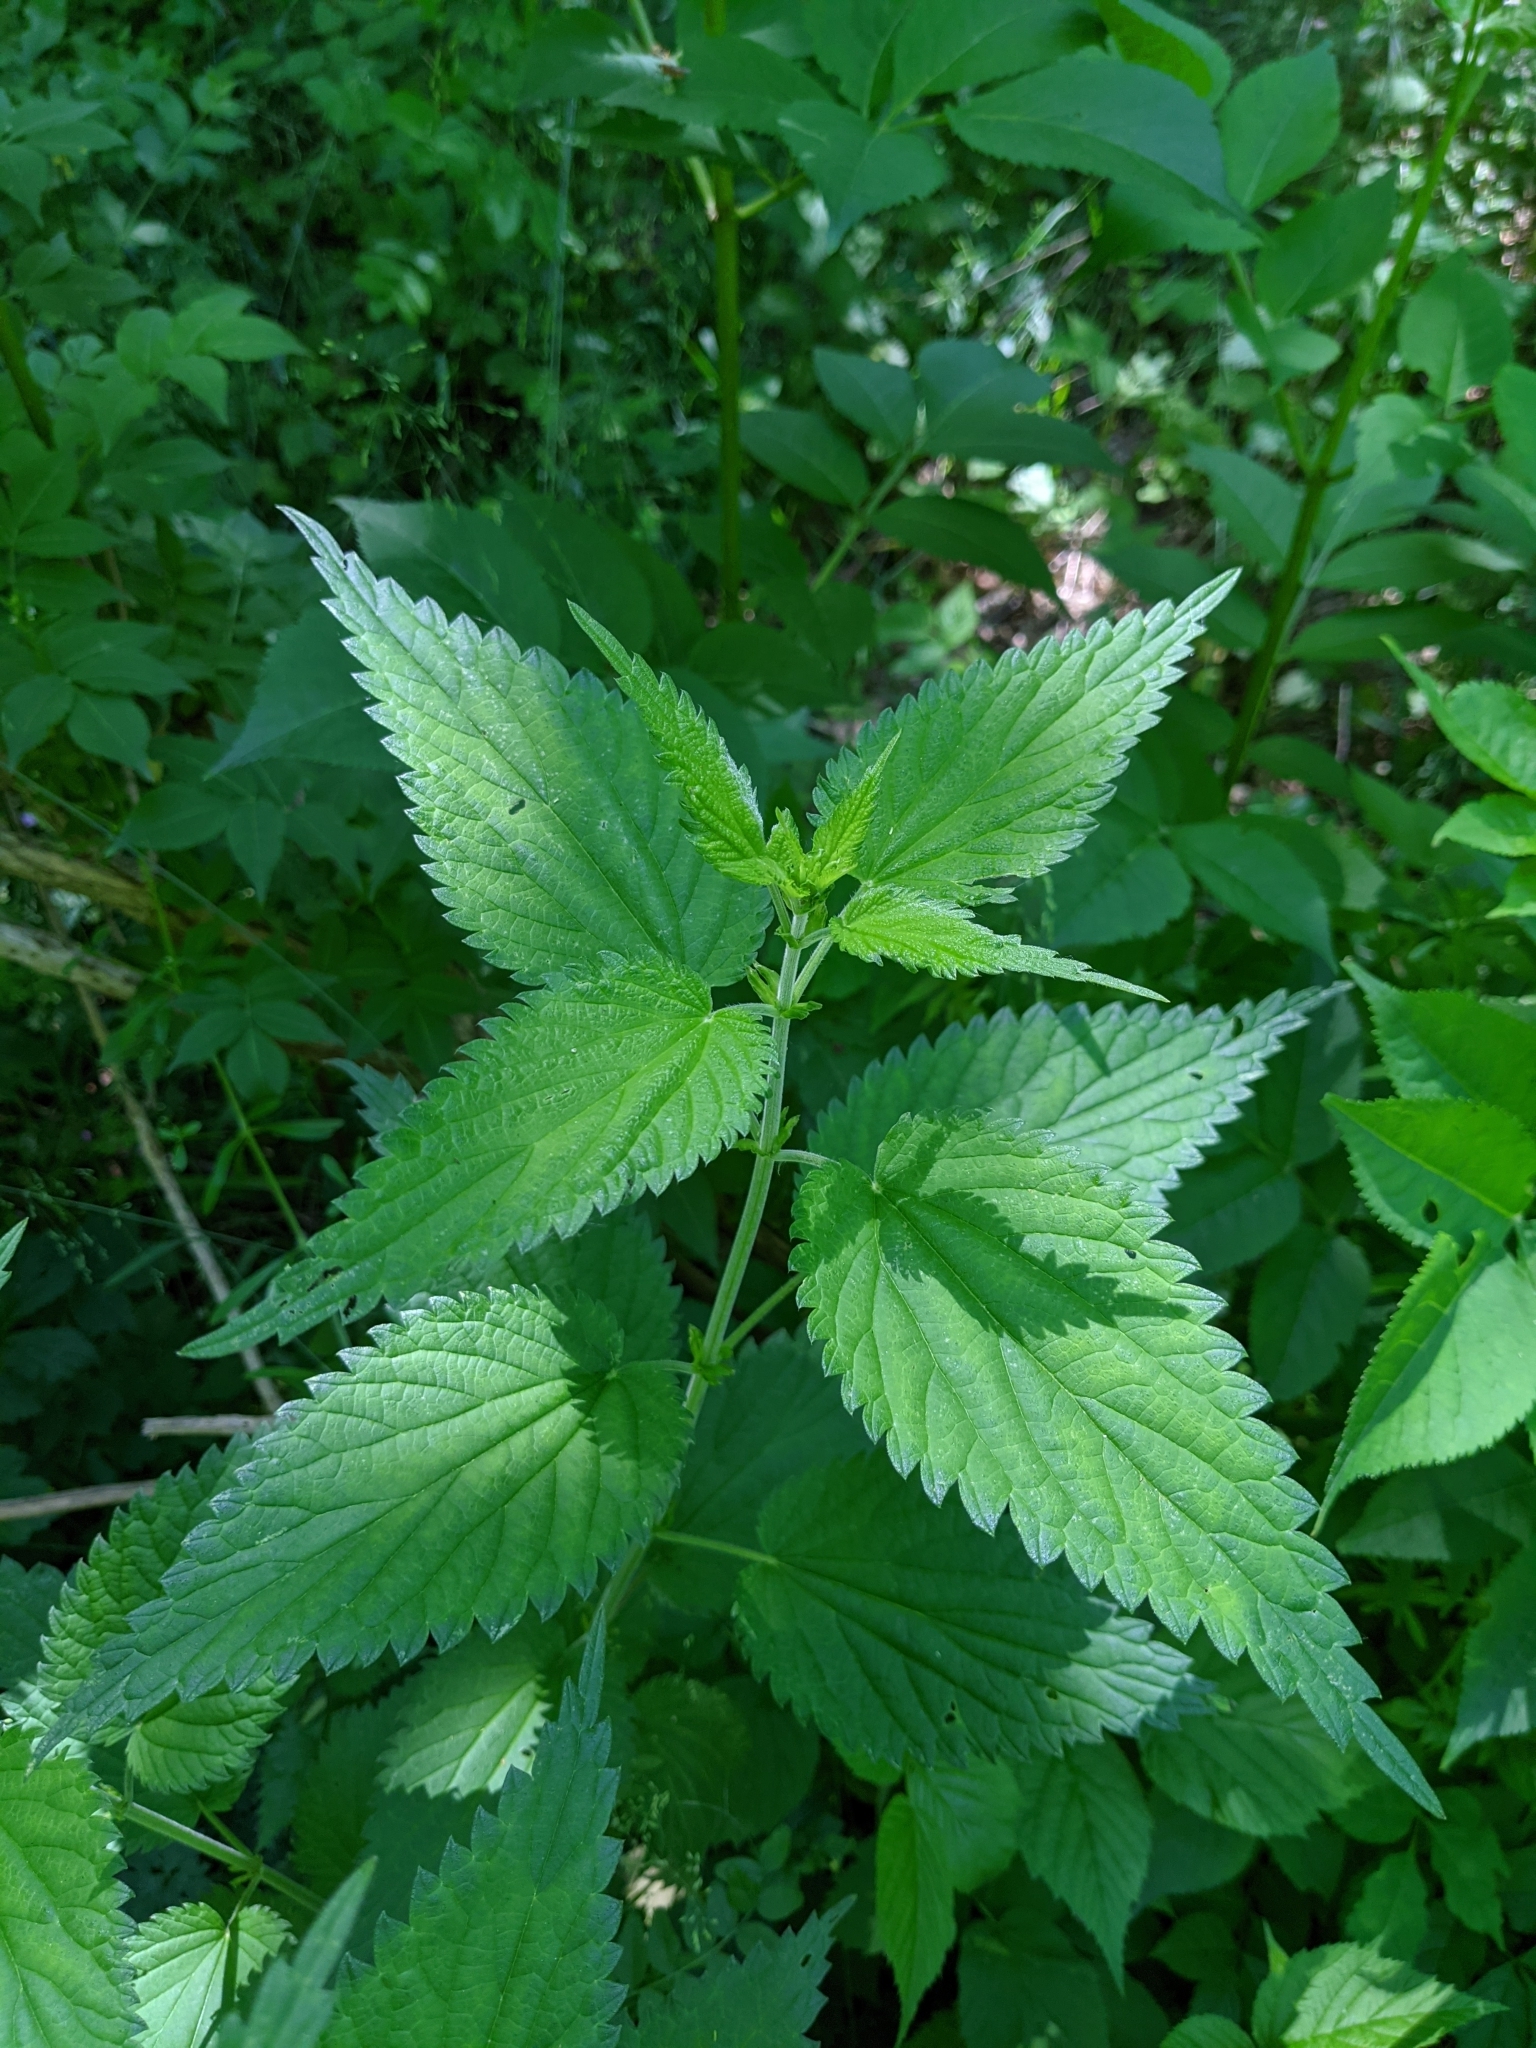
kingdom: Plantae
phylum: Tracheophyta
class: Magnoliopsida
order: Rosales
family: Urticaceae
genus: Urtica
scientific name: Urtica dioica
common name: Common nettle
